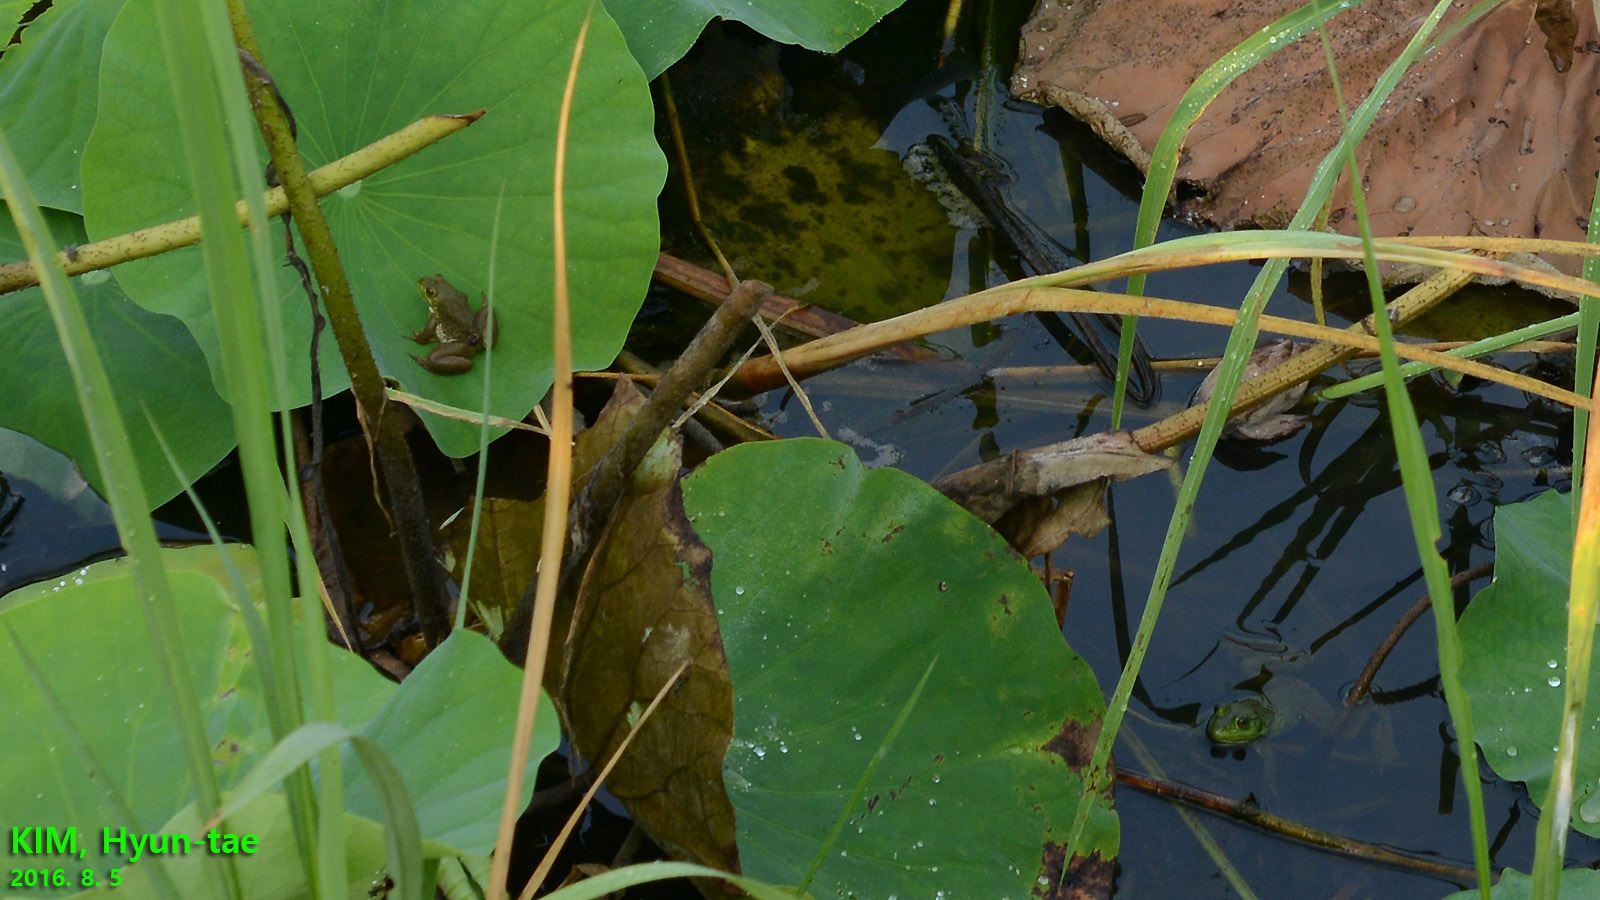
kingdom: Animalia
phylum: Chordata
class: Amphibia
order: Anura
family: Ranidae
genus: Lithobates
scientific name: Lithobates catesbeianus
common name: American bullfrog
